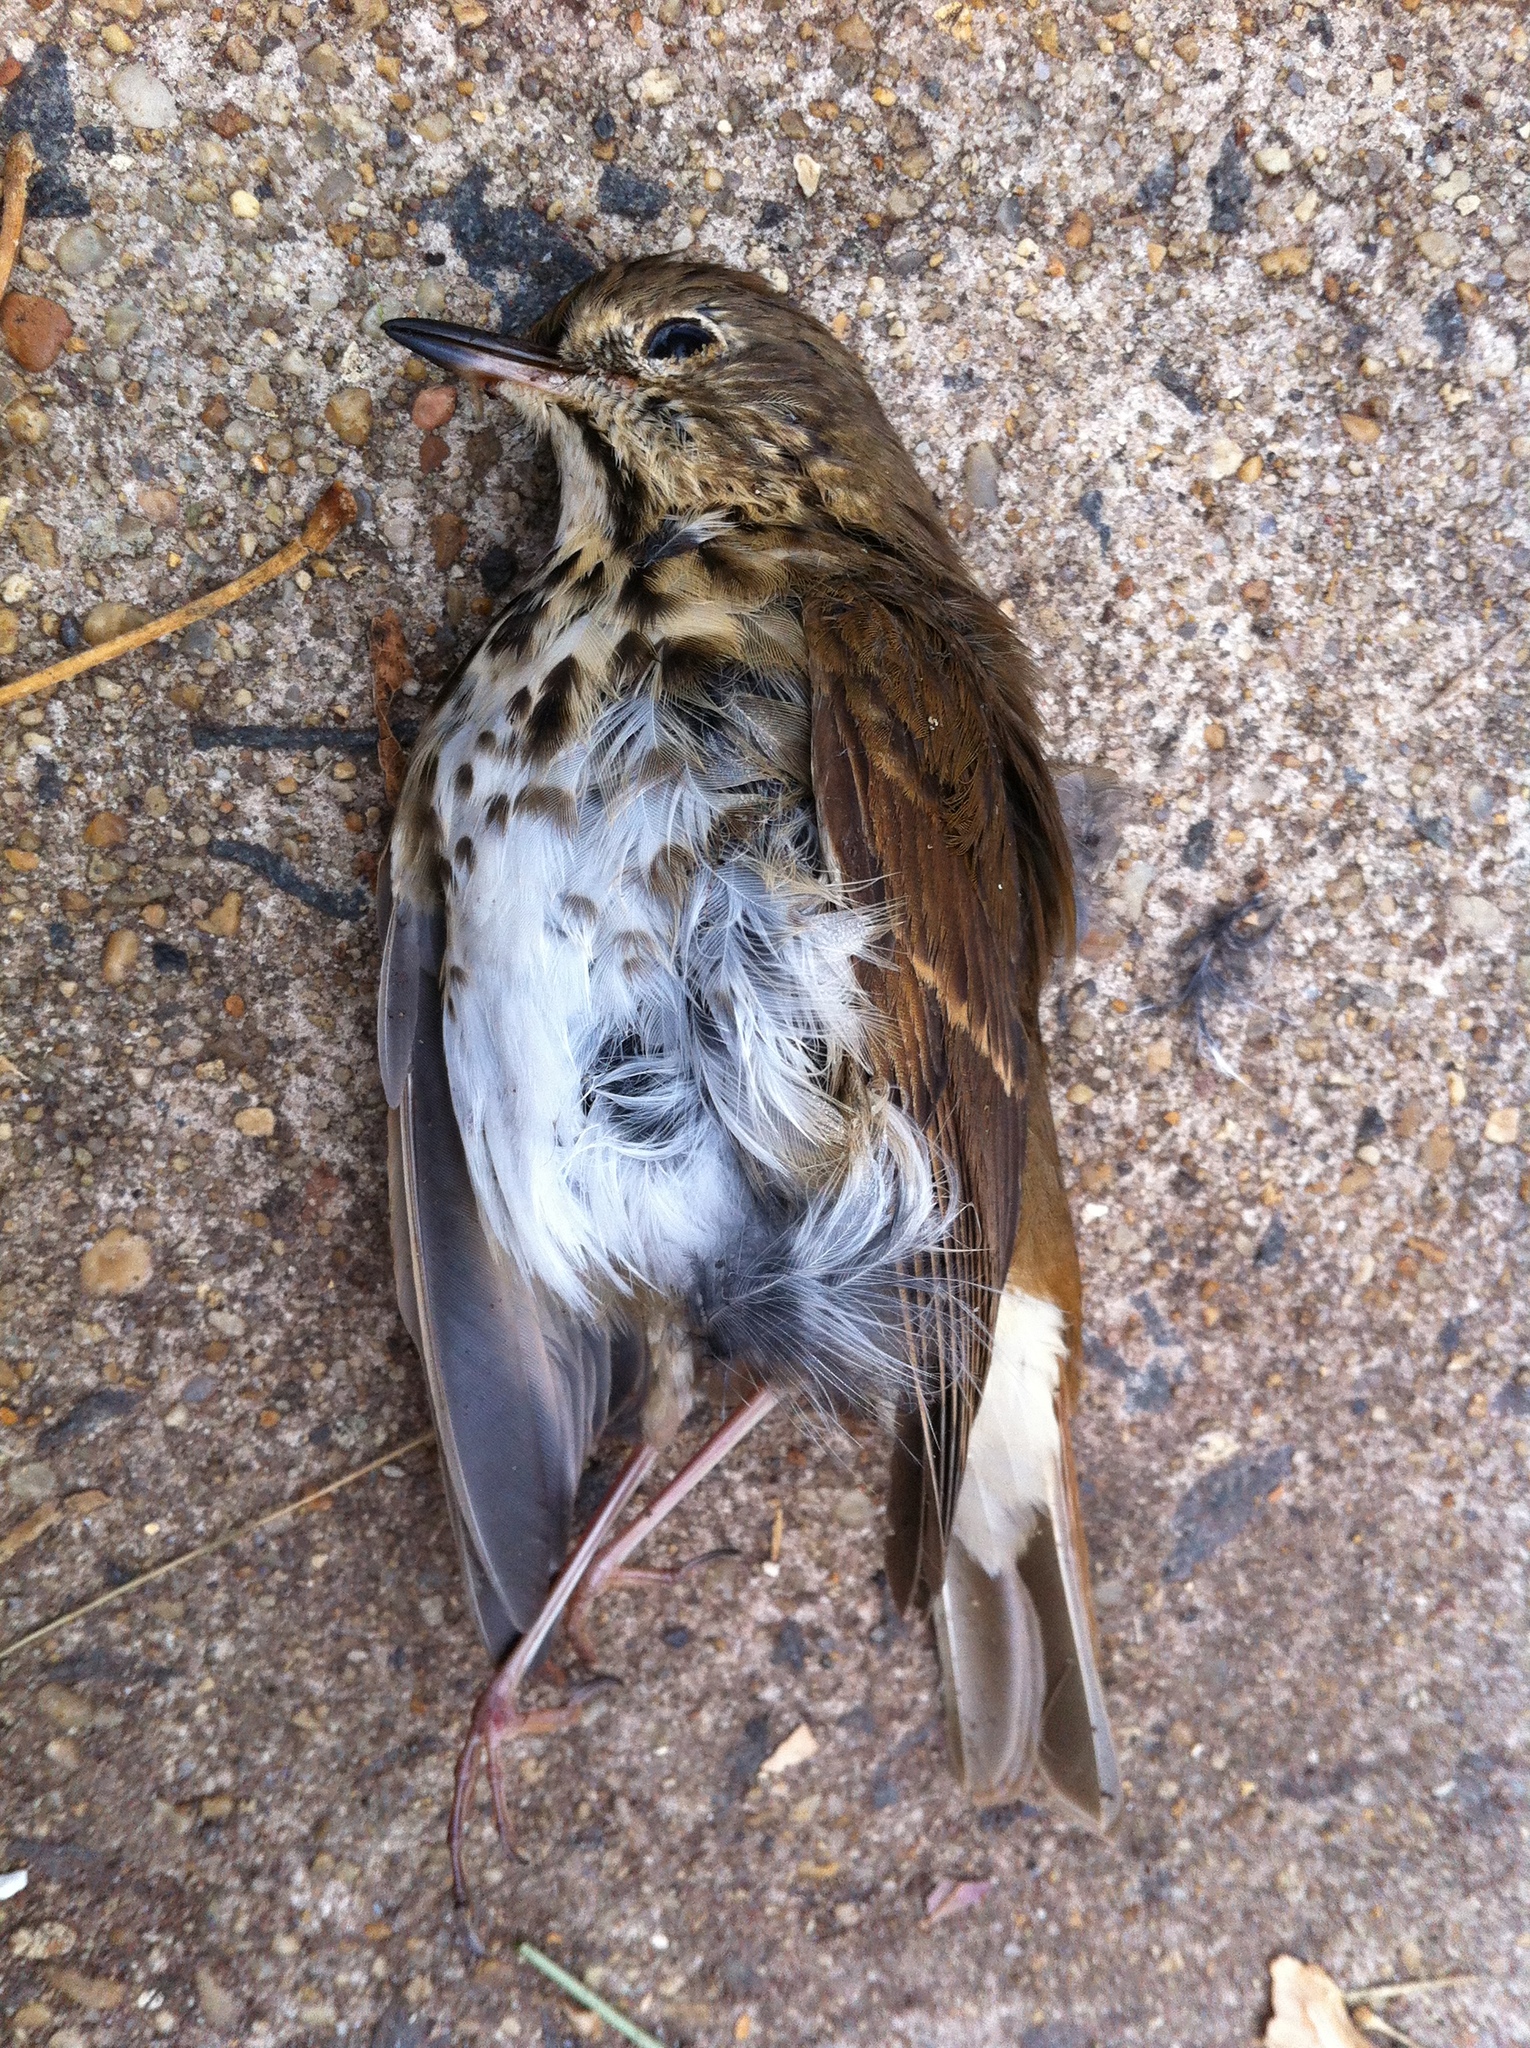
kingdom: Animalia
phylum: Chordata
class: Aves
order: Passeriformes
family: Turdidae
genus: Catharus
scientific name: Catharus guttatus
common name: Hermit thrush
